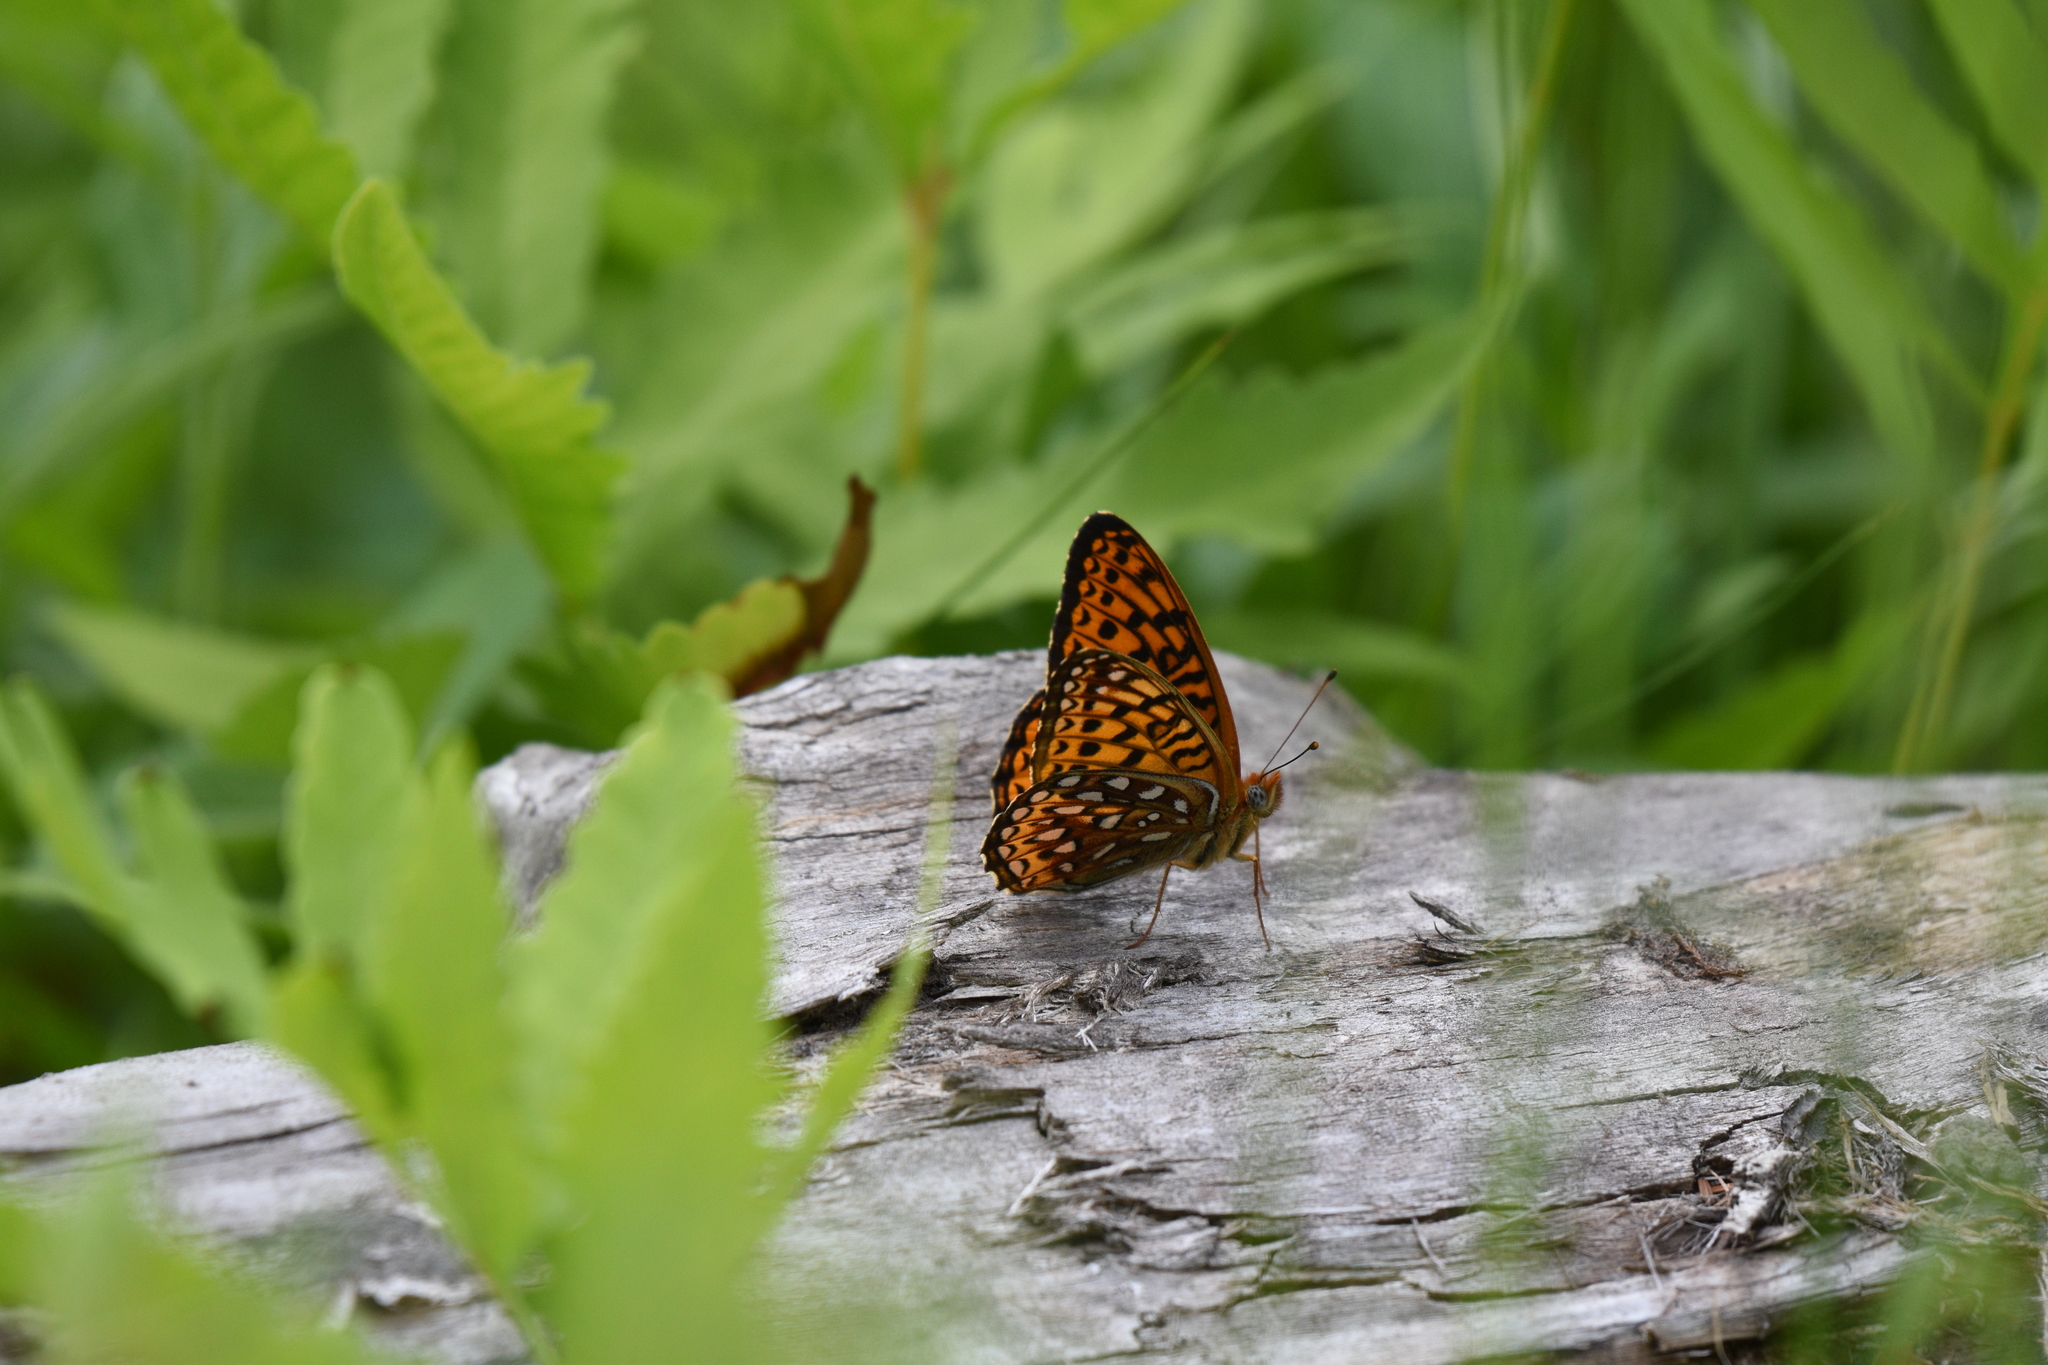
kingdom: Animalia
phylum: Arthropoda
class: Insecta
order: Lepidoptera
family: Nymphalidae
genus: Speyeria
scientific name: Speyeria atlantis
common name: Atlantis fritillary
